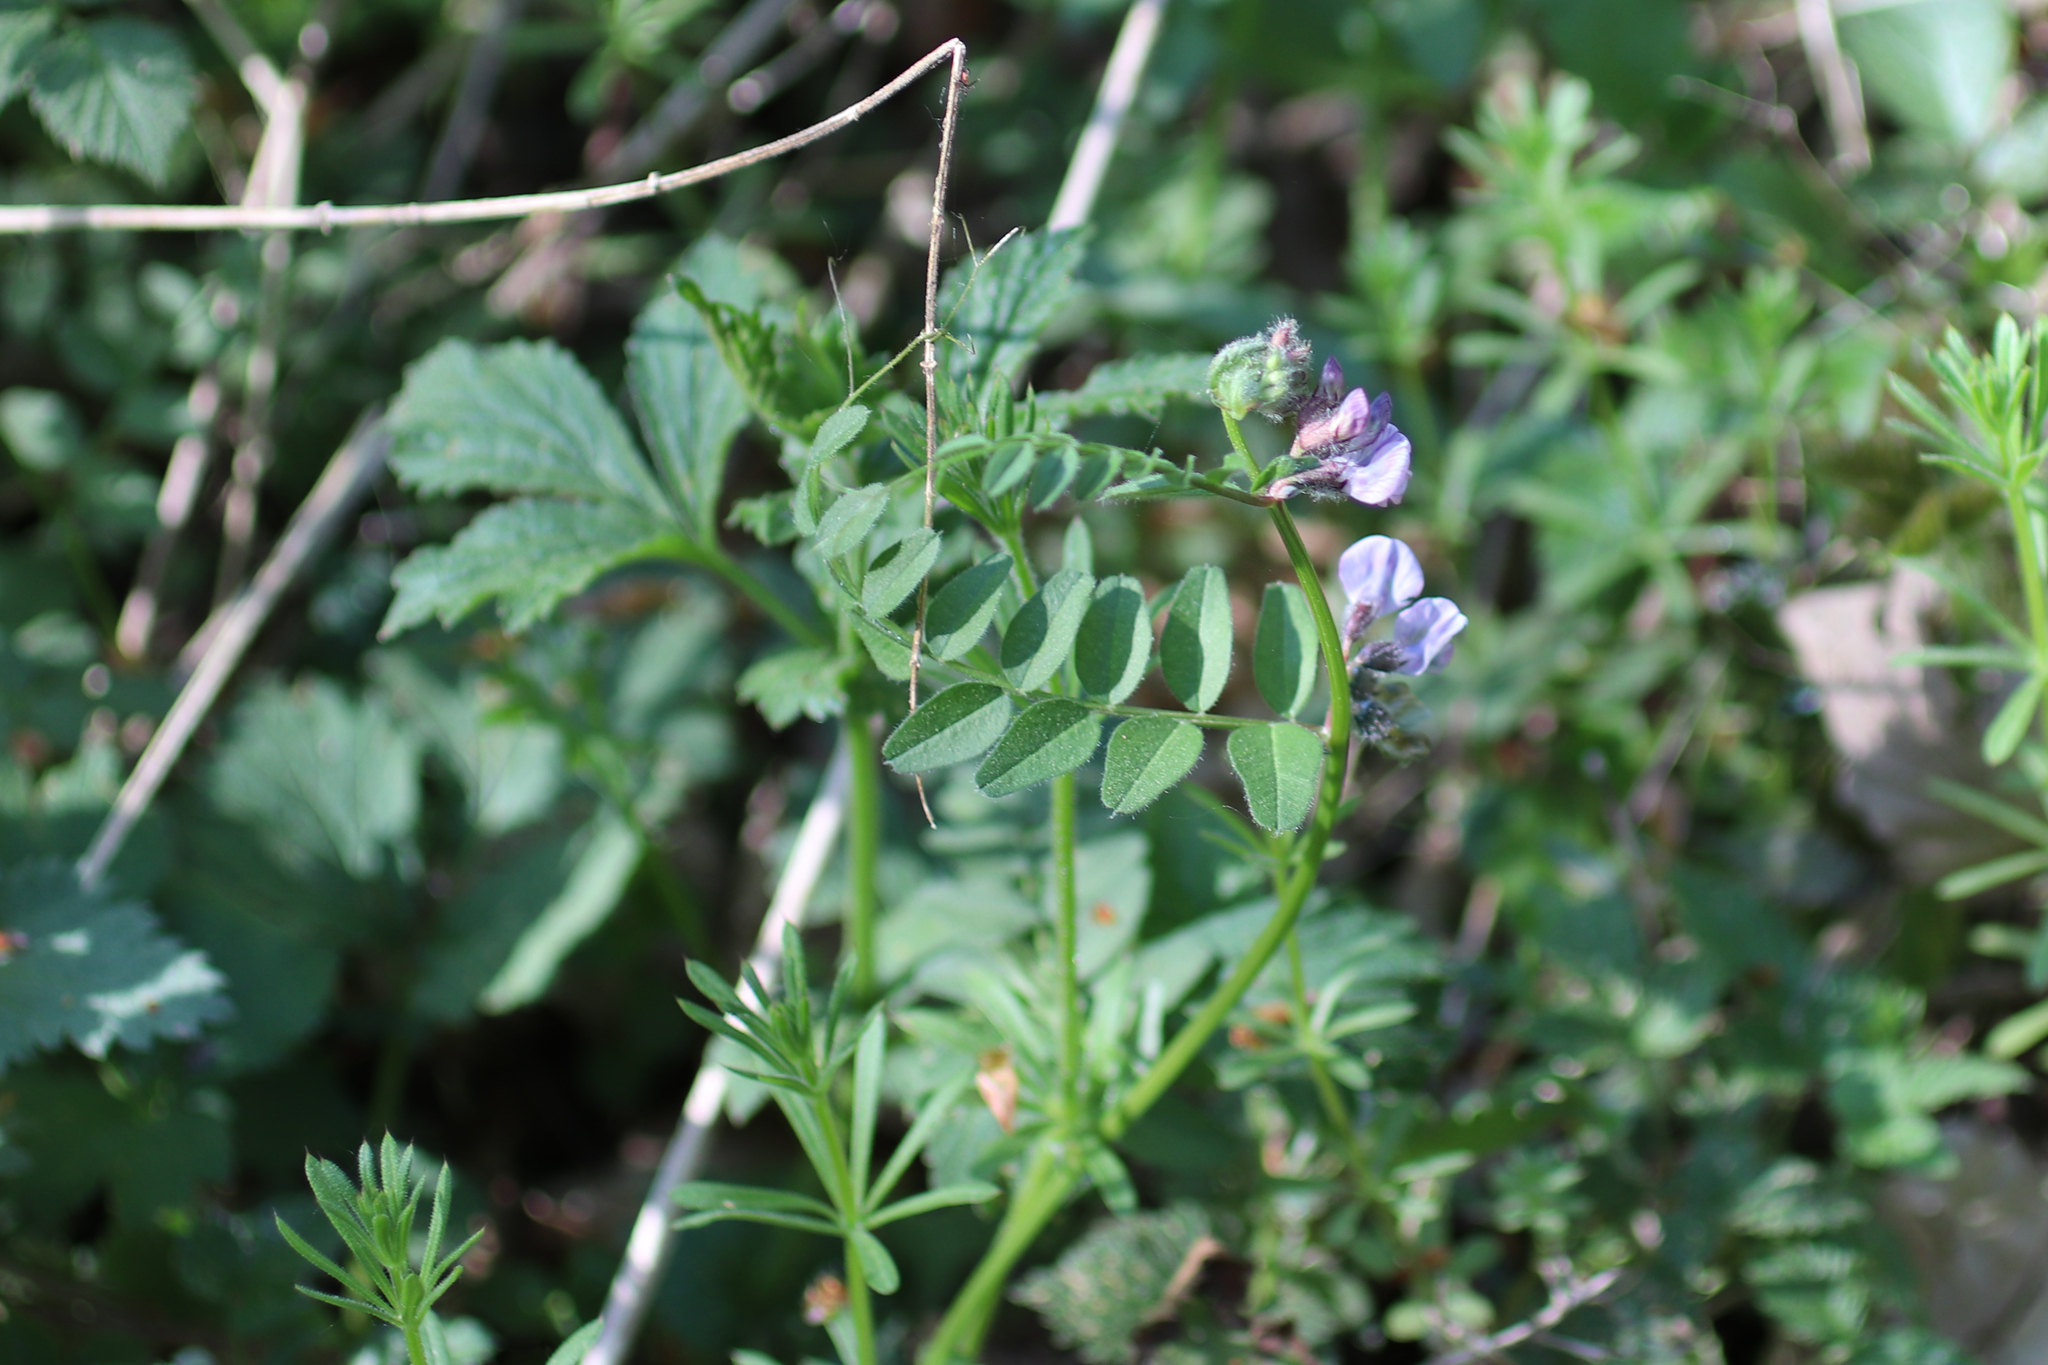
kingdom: Plantae
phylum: Tracheophyta
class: Magnoliopsida
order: Fabales
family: Fabaceae
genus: Vicia
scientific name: Vicia sepium
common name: Bush vetch
